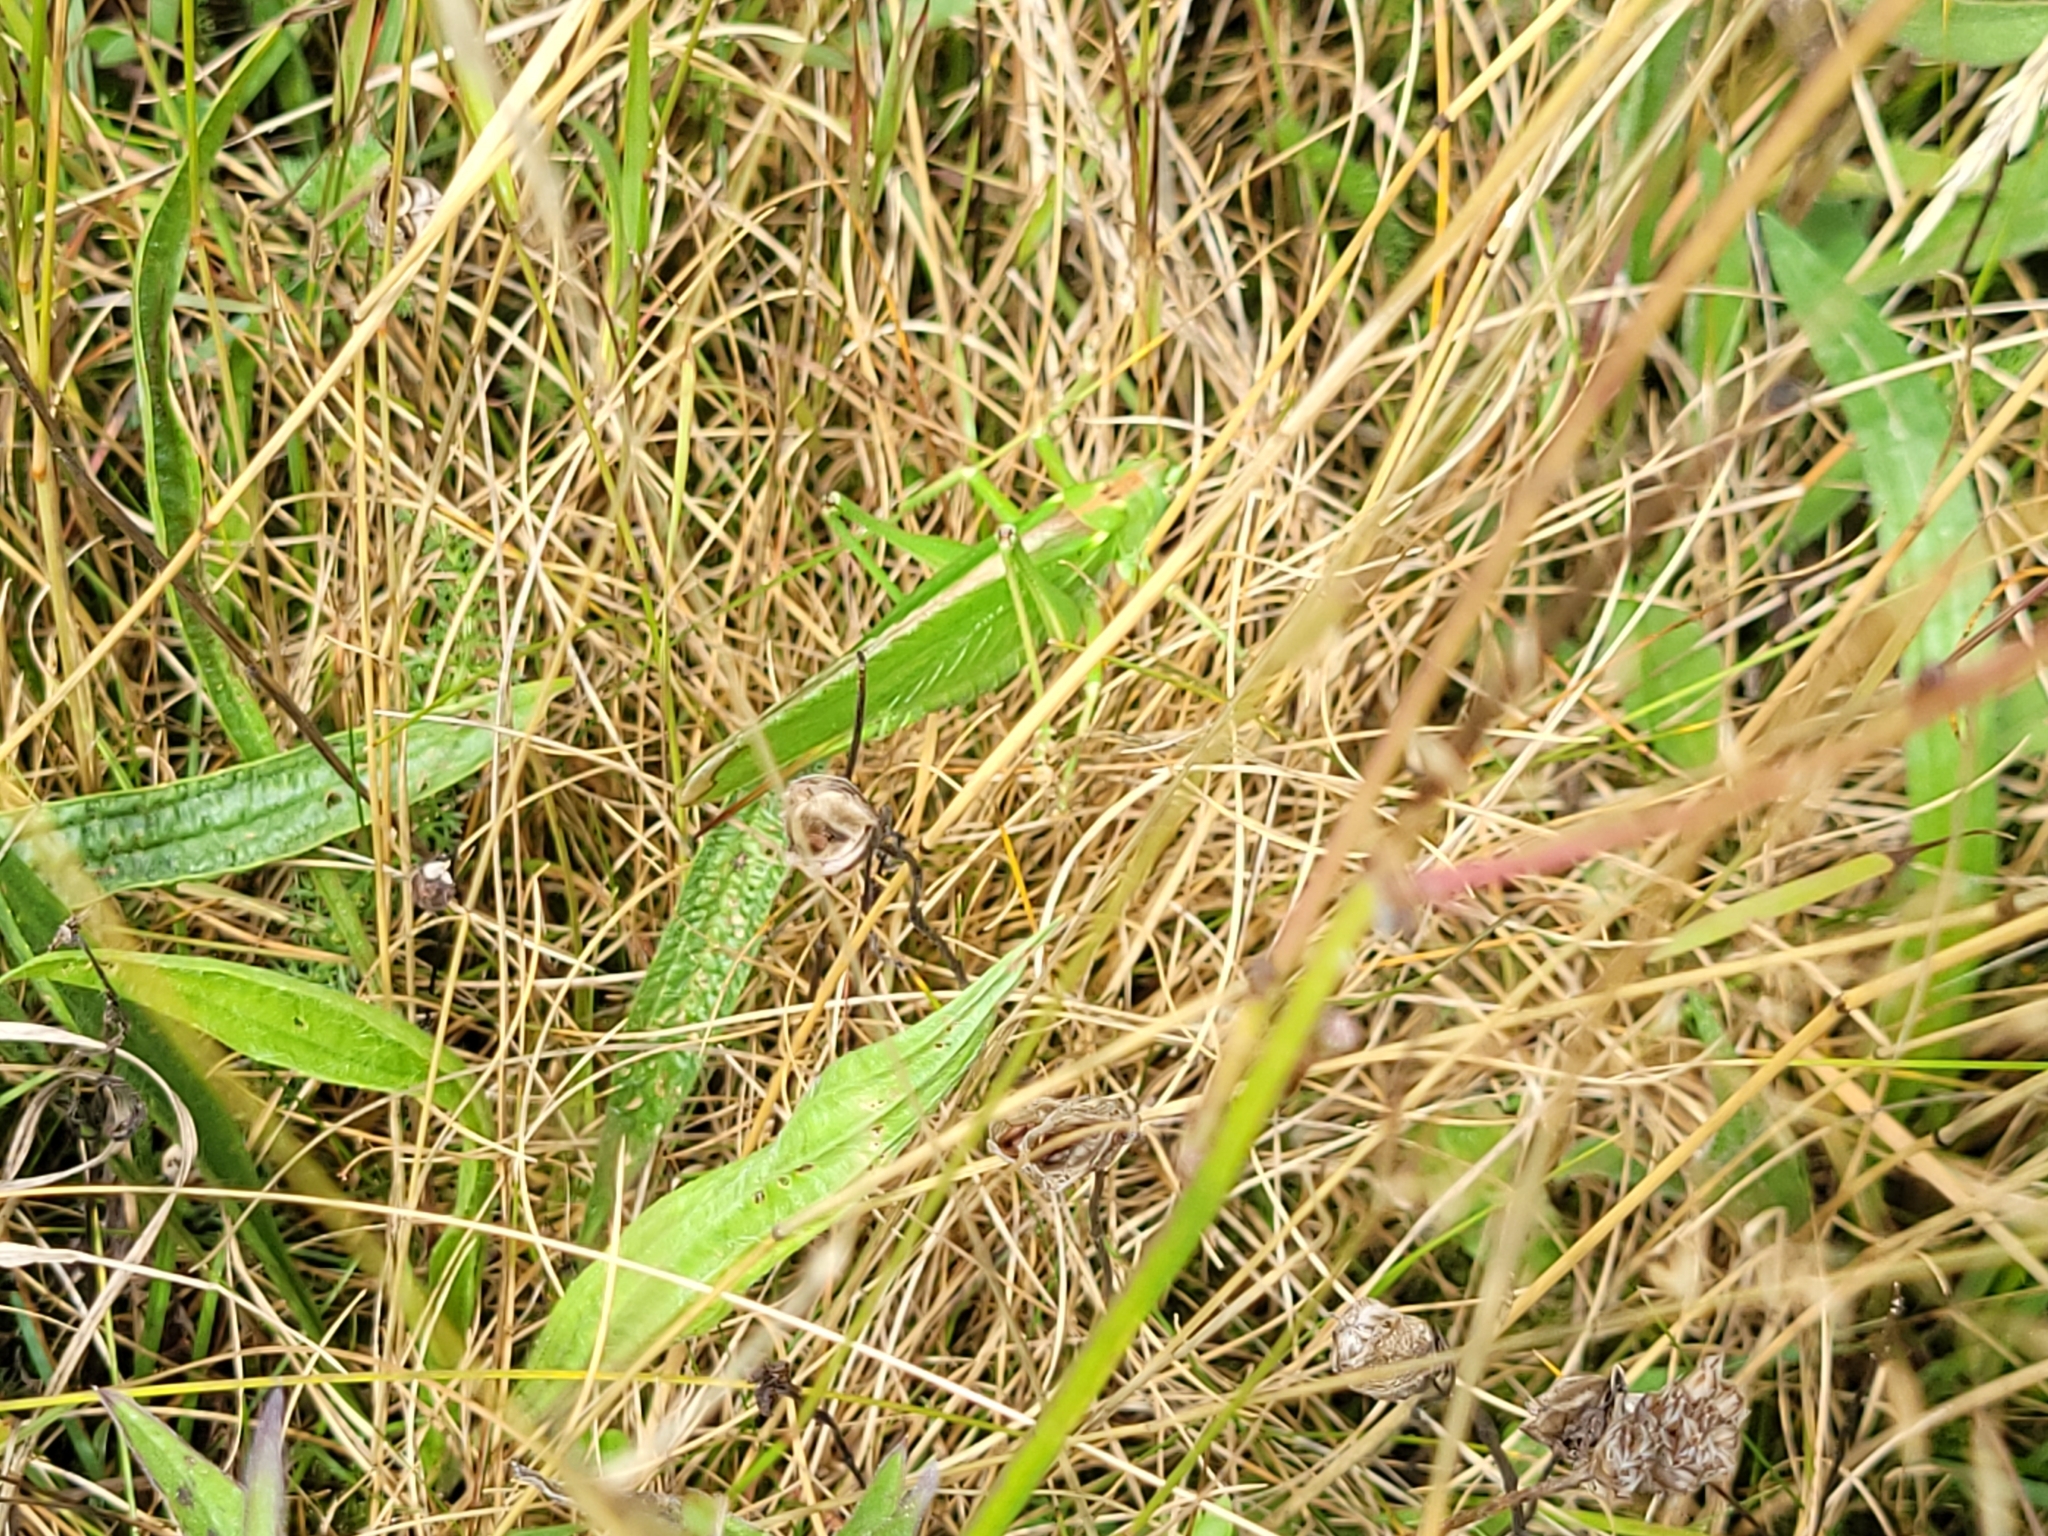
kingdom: Animalia
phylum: Arthropoda
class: Insecta
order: Orthoptera
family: Tettigoniidae
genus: Tettigonia
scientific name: Tettigonia viridissima
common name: Great green bush-cricket
